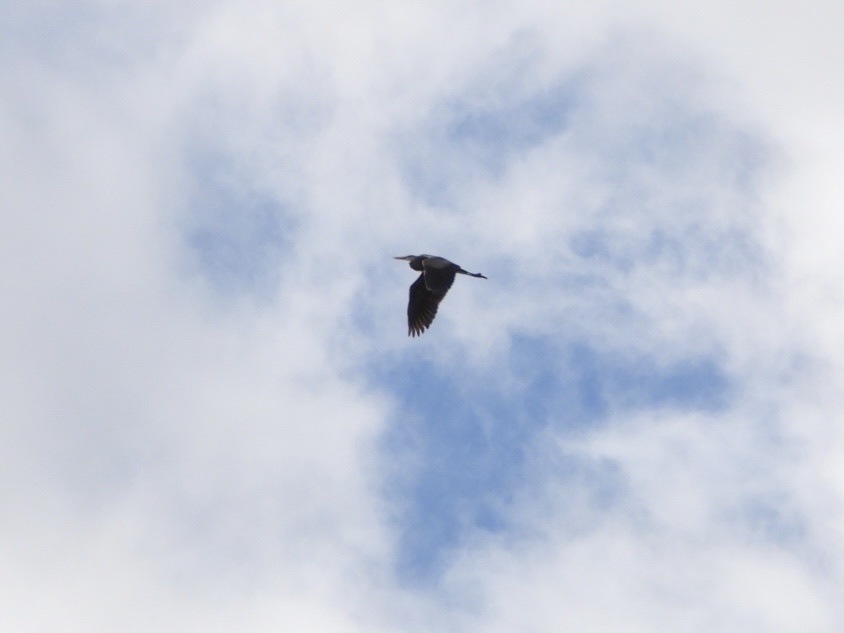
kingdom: Animalia
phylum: Chordata
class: Aves
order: Pelecaniformes
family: Ardeidae
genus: Ardea
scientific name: Ardea herodias
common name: Great blue heron
